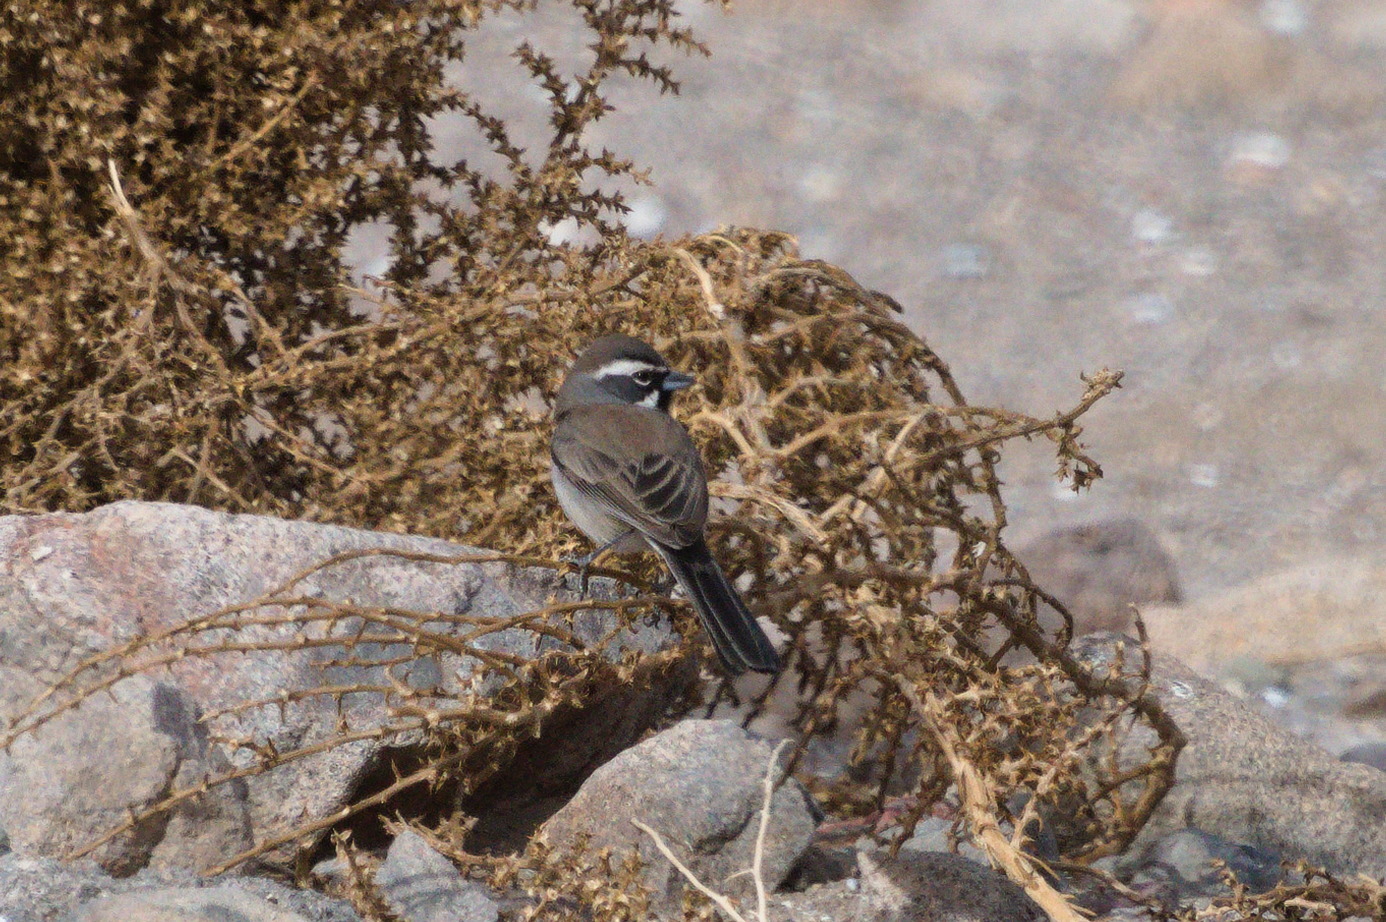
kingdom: Animalia
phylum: Chordata
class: Aves
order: Passeriformes
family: Passerellidae
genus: Amphispiza
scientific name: Amphispiza bilineata
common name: Black-throated sparrow
